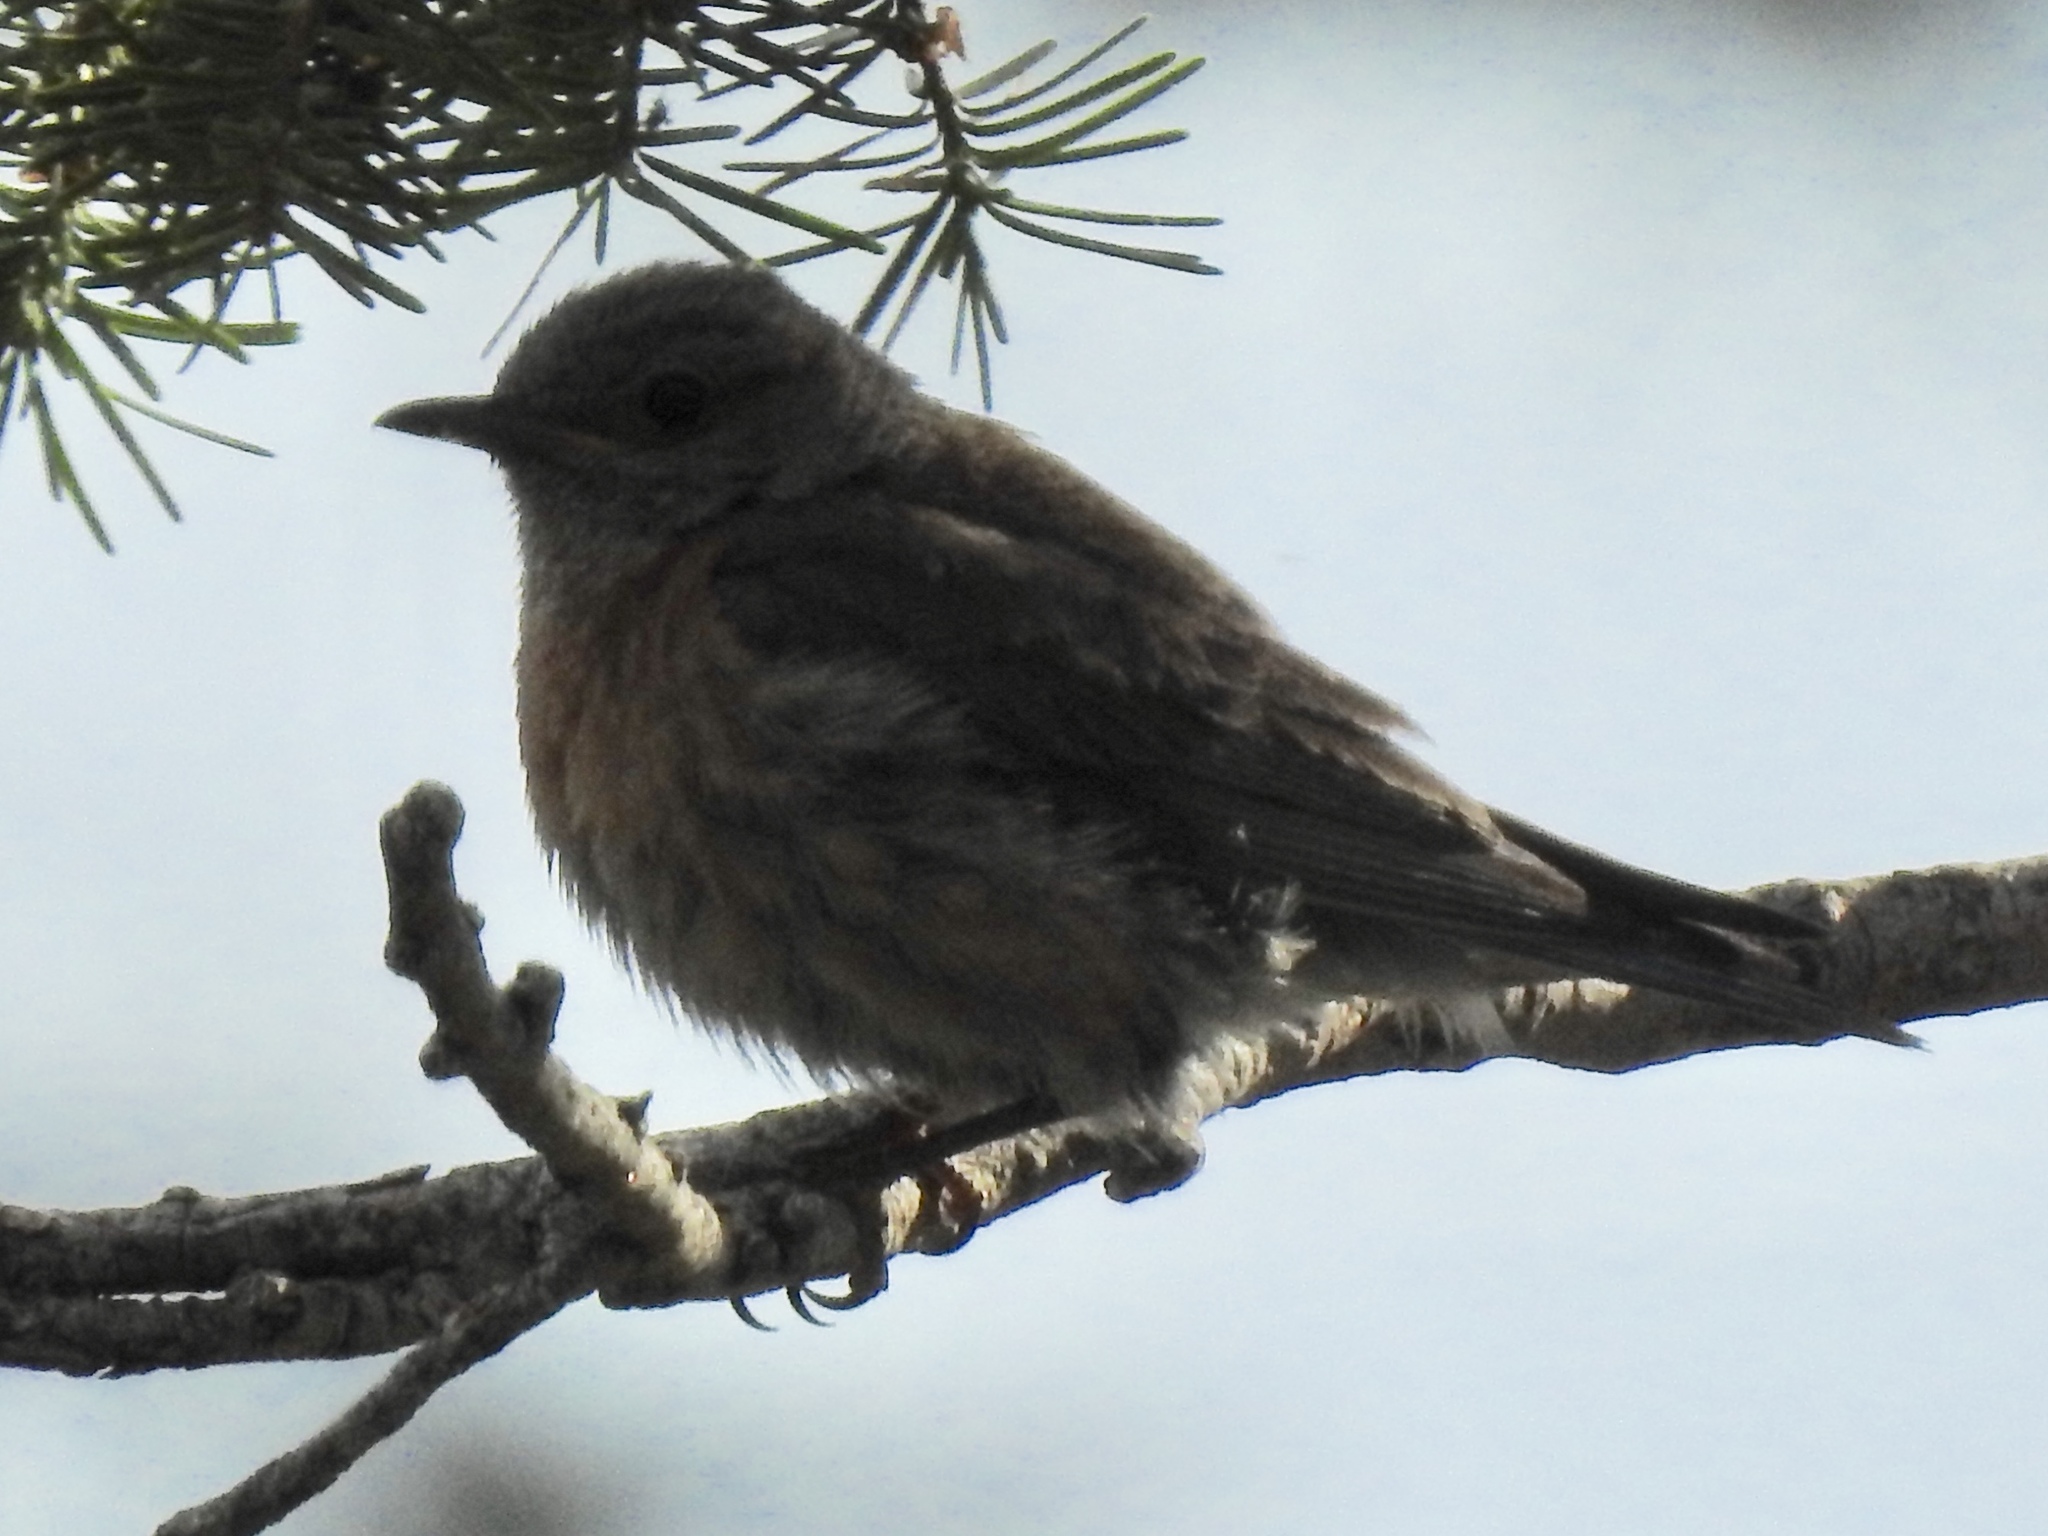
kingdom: Animalia
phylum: Chordata
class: Aves
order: Passeriformes
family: Turdidae
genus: Sialia
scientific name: Sialia mexicana
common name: Western bluebird
